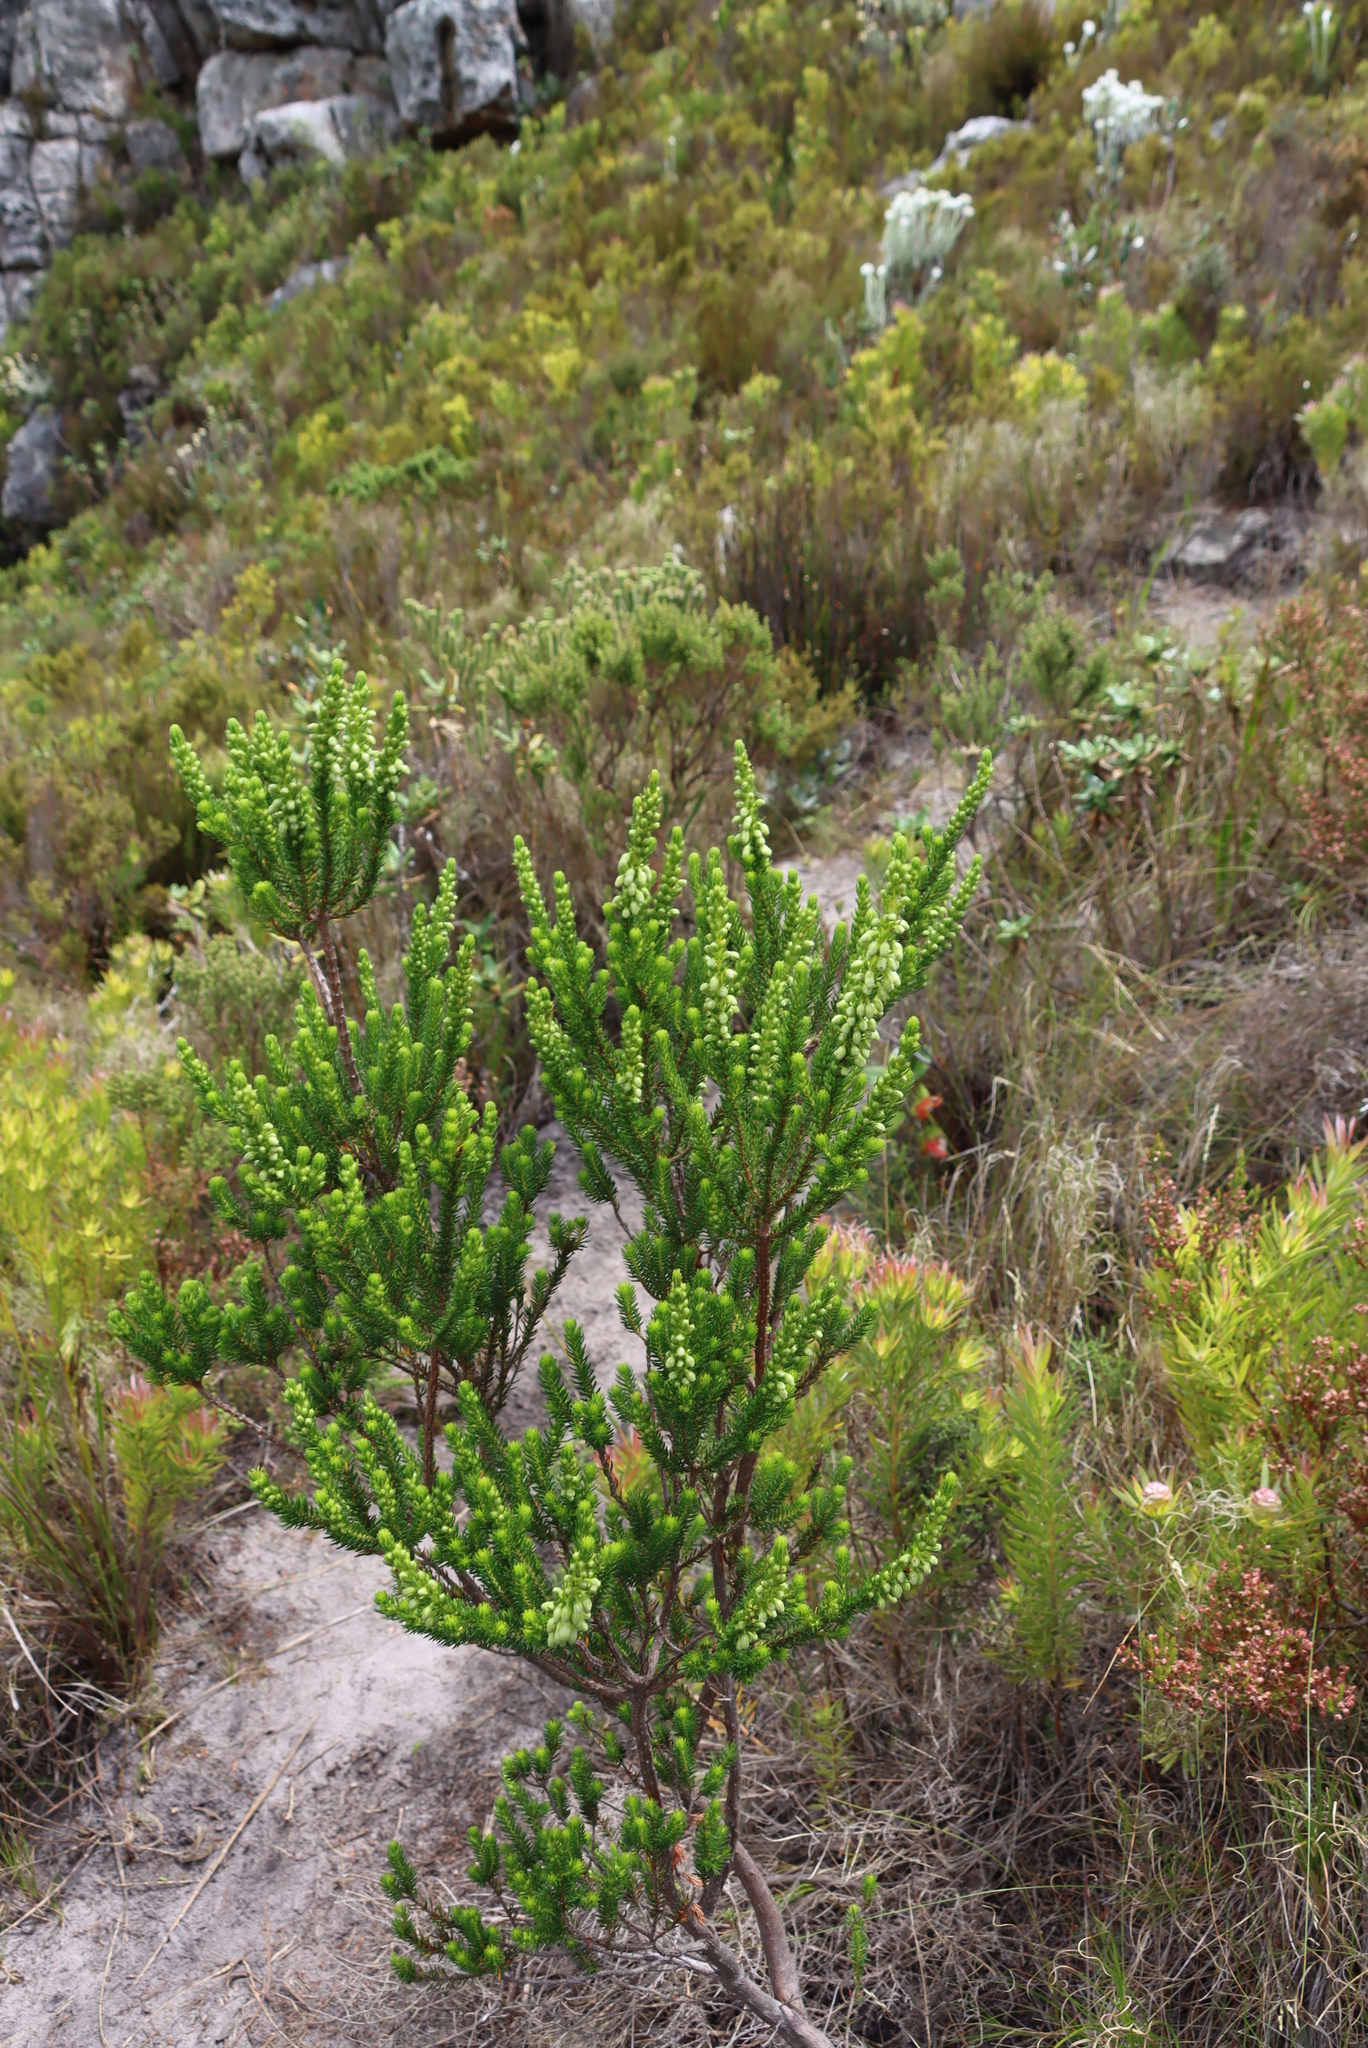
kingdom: Plantae
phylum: Tracheophyta
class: Magnoliopsida
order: Ericales
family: Ericaceae
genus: Erica
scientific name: Erica mammosa
